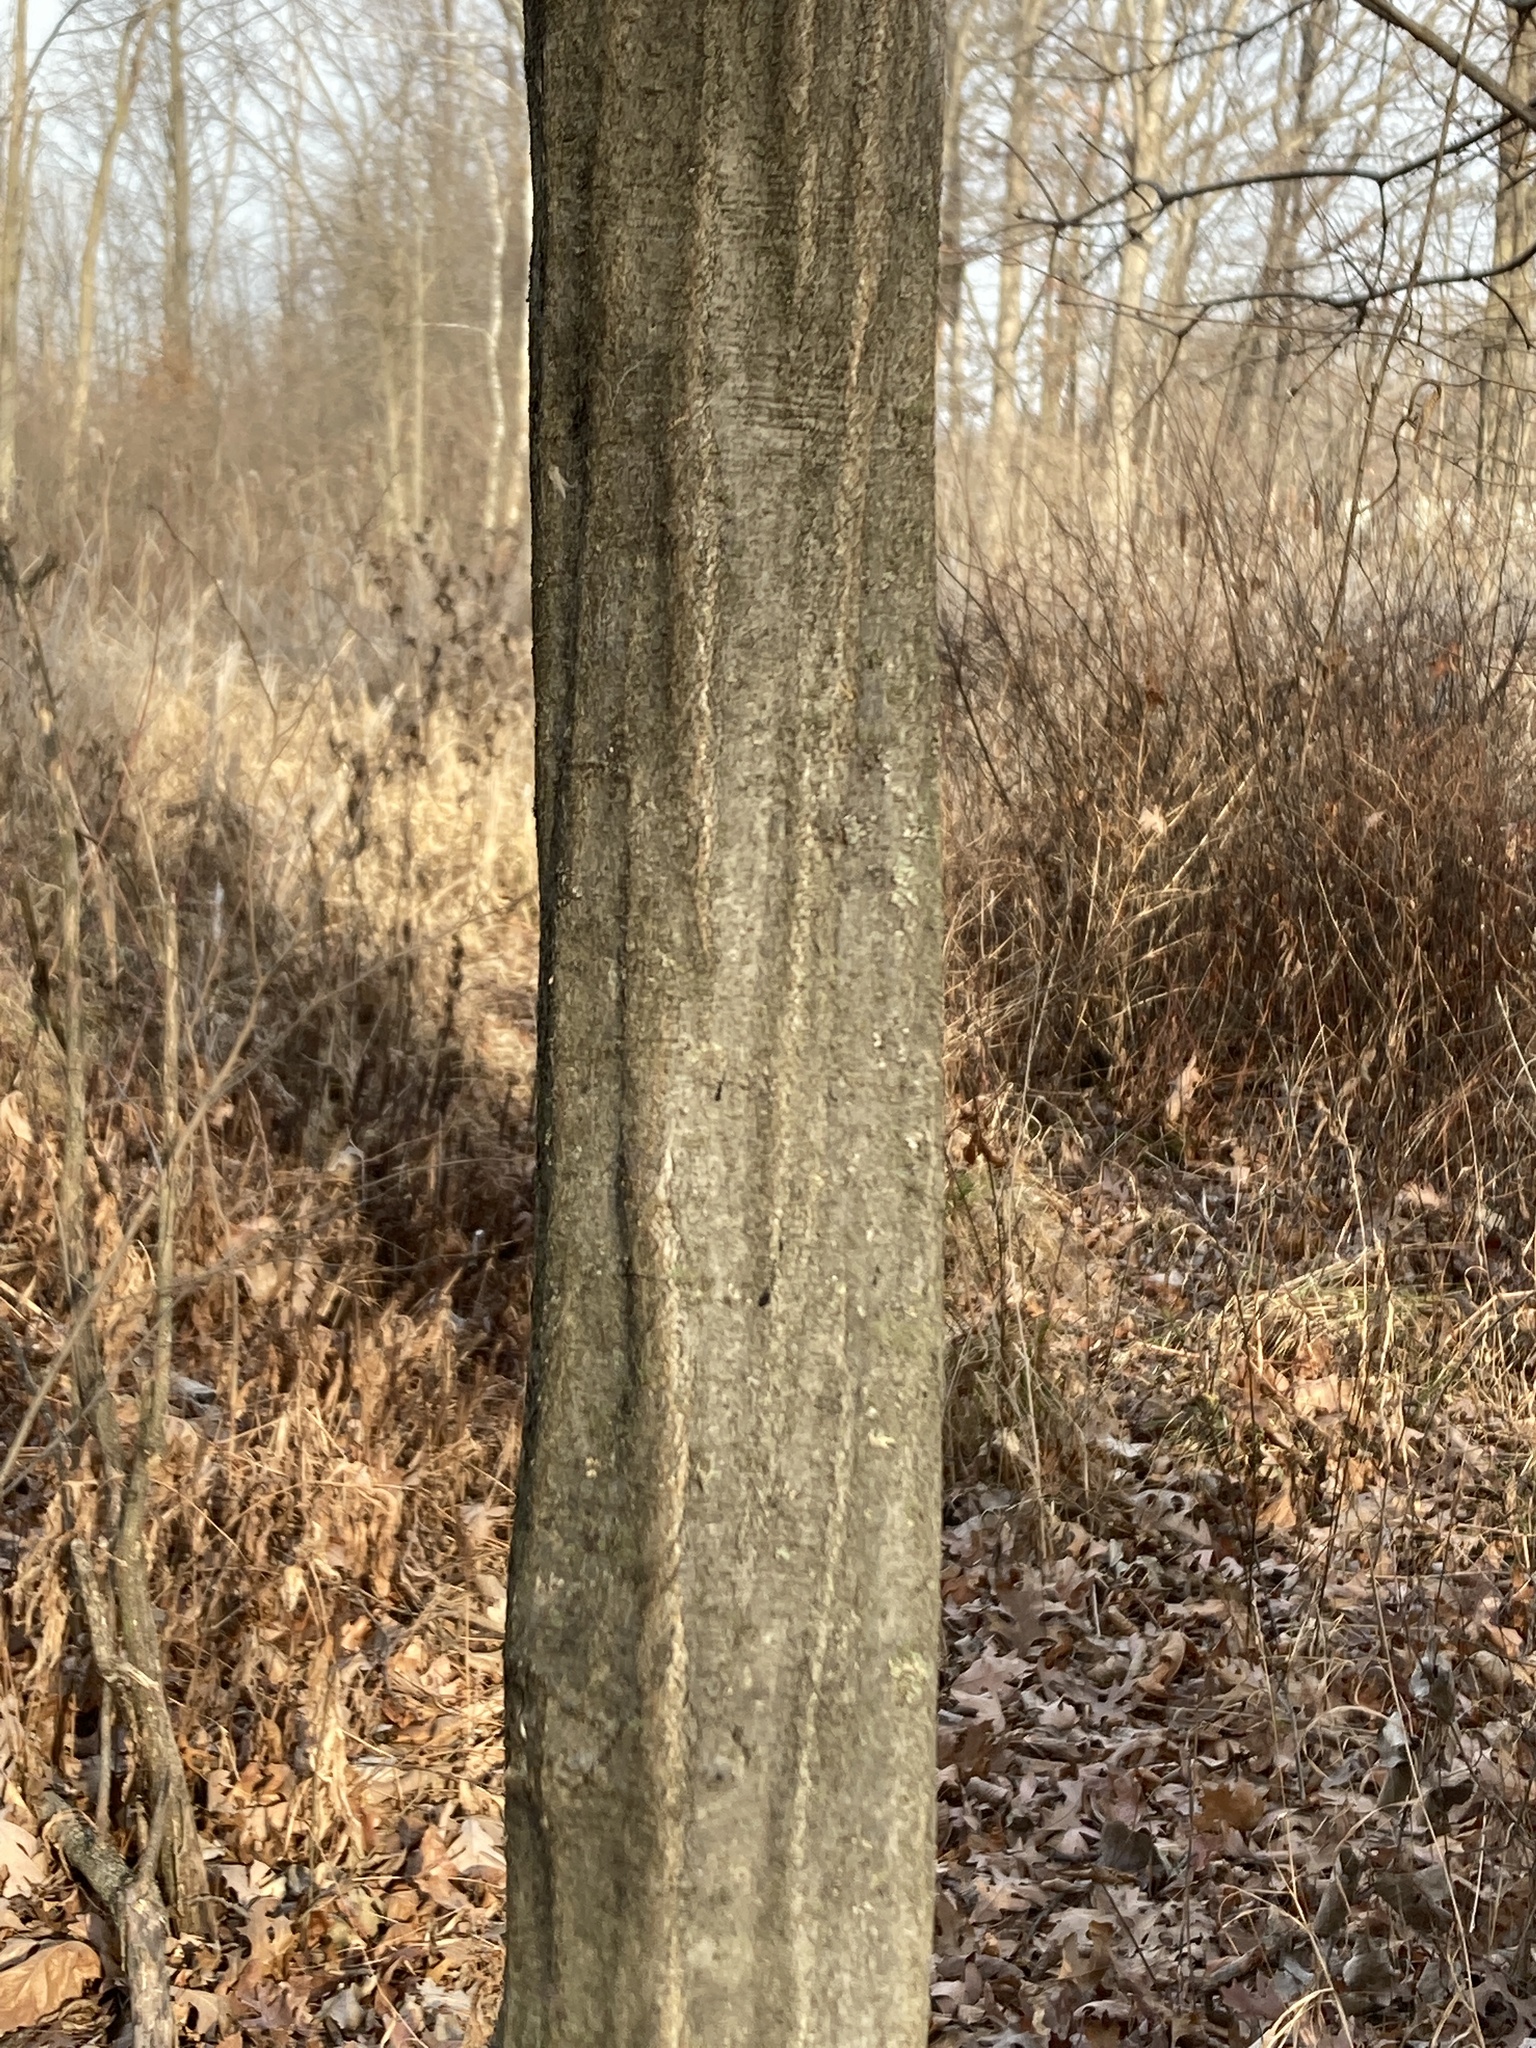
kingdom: Plantae
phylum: Tracheophyta
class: Magnoliopsida
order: Fagales
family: Betulaceae
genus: Carpinus
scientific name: Carpinus caroliniana
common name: American hornbeam
